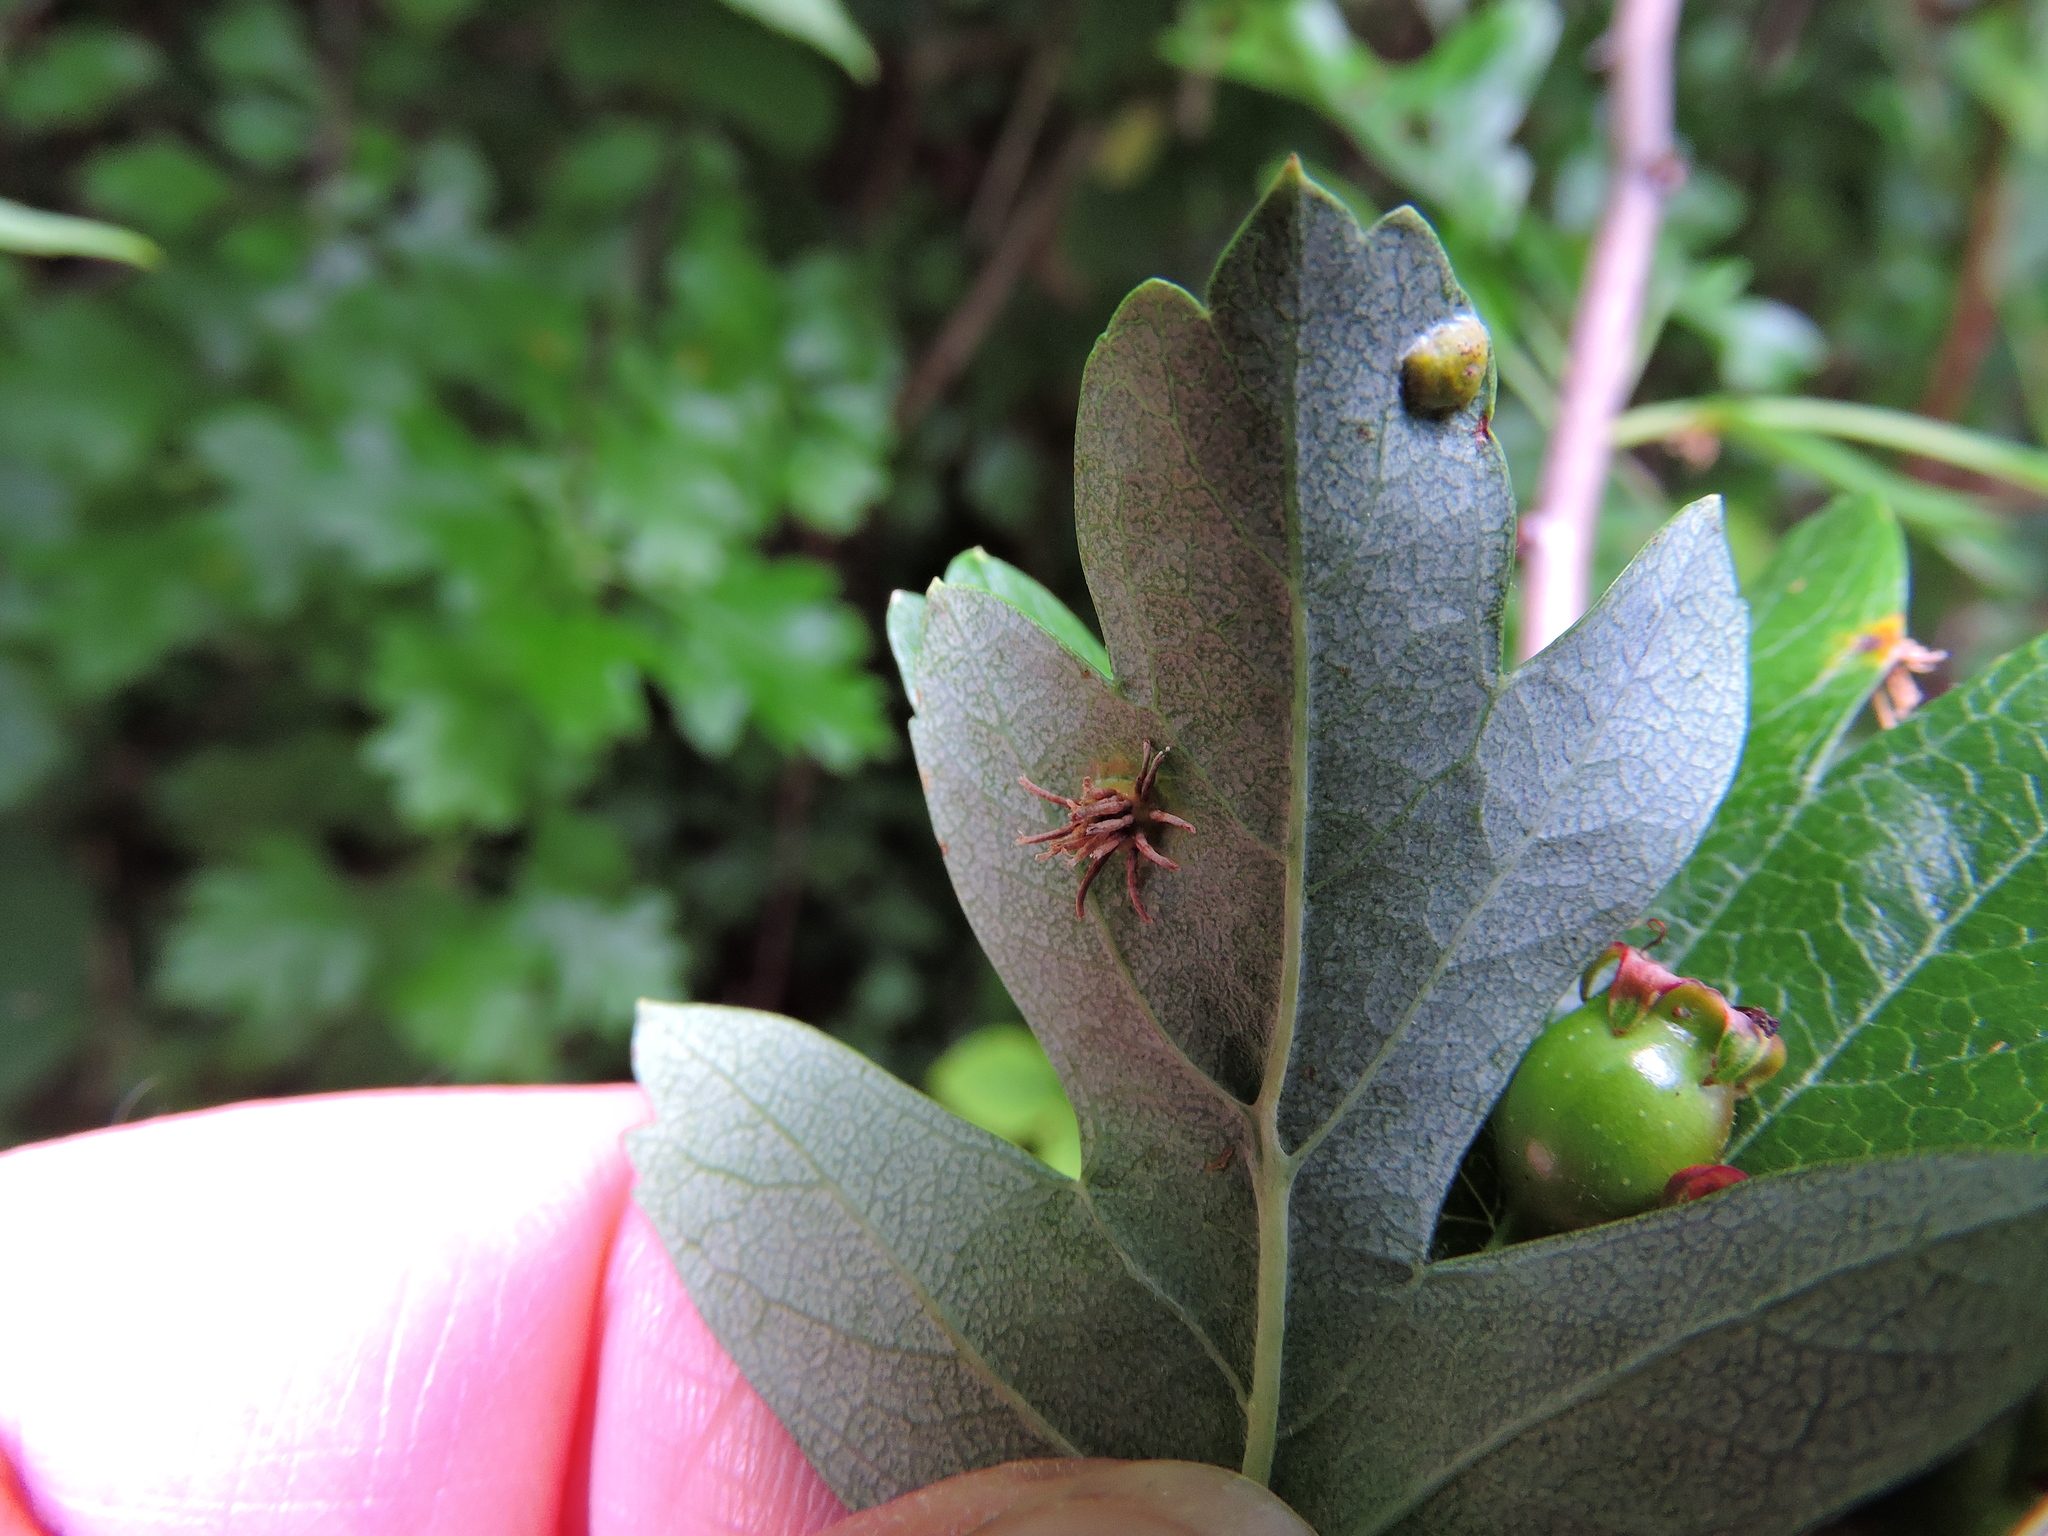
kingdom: Fungi
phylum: Basidiomycota
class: Pucciniomycetes
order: Pucciniales
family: Gymnosporangiaceae
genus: Gymnosporangium
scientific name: Gymnosporangium clavariiforme
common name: Tongues of fire
